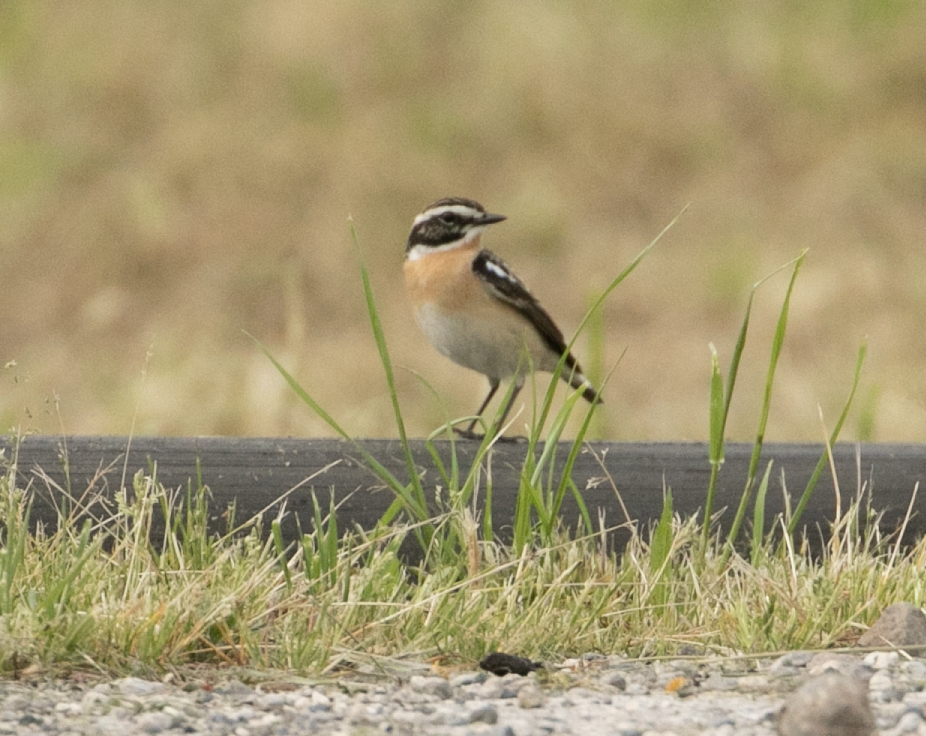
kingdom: Animalia
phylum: Chordata
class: Aves
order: Passeriformes
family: Muscicapidae
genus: Saxicola
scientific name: Saxicola rubetra
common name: Whinchat
